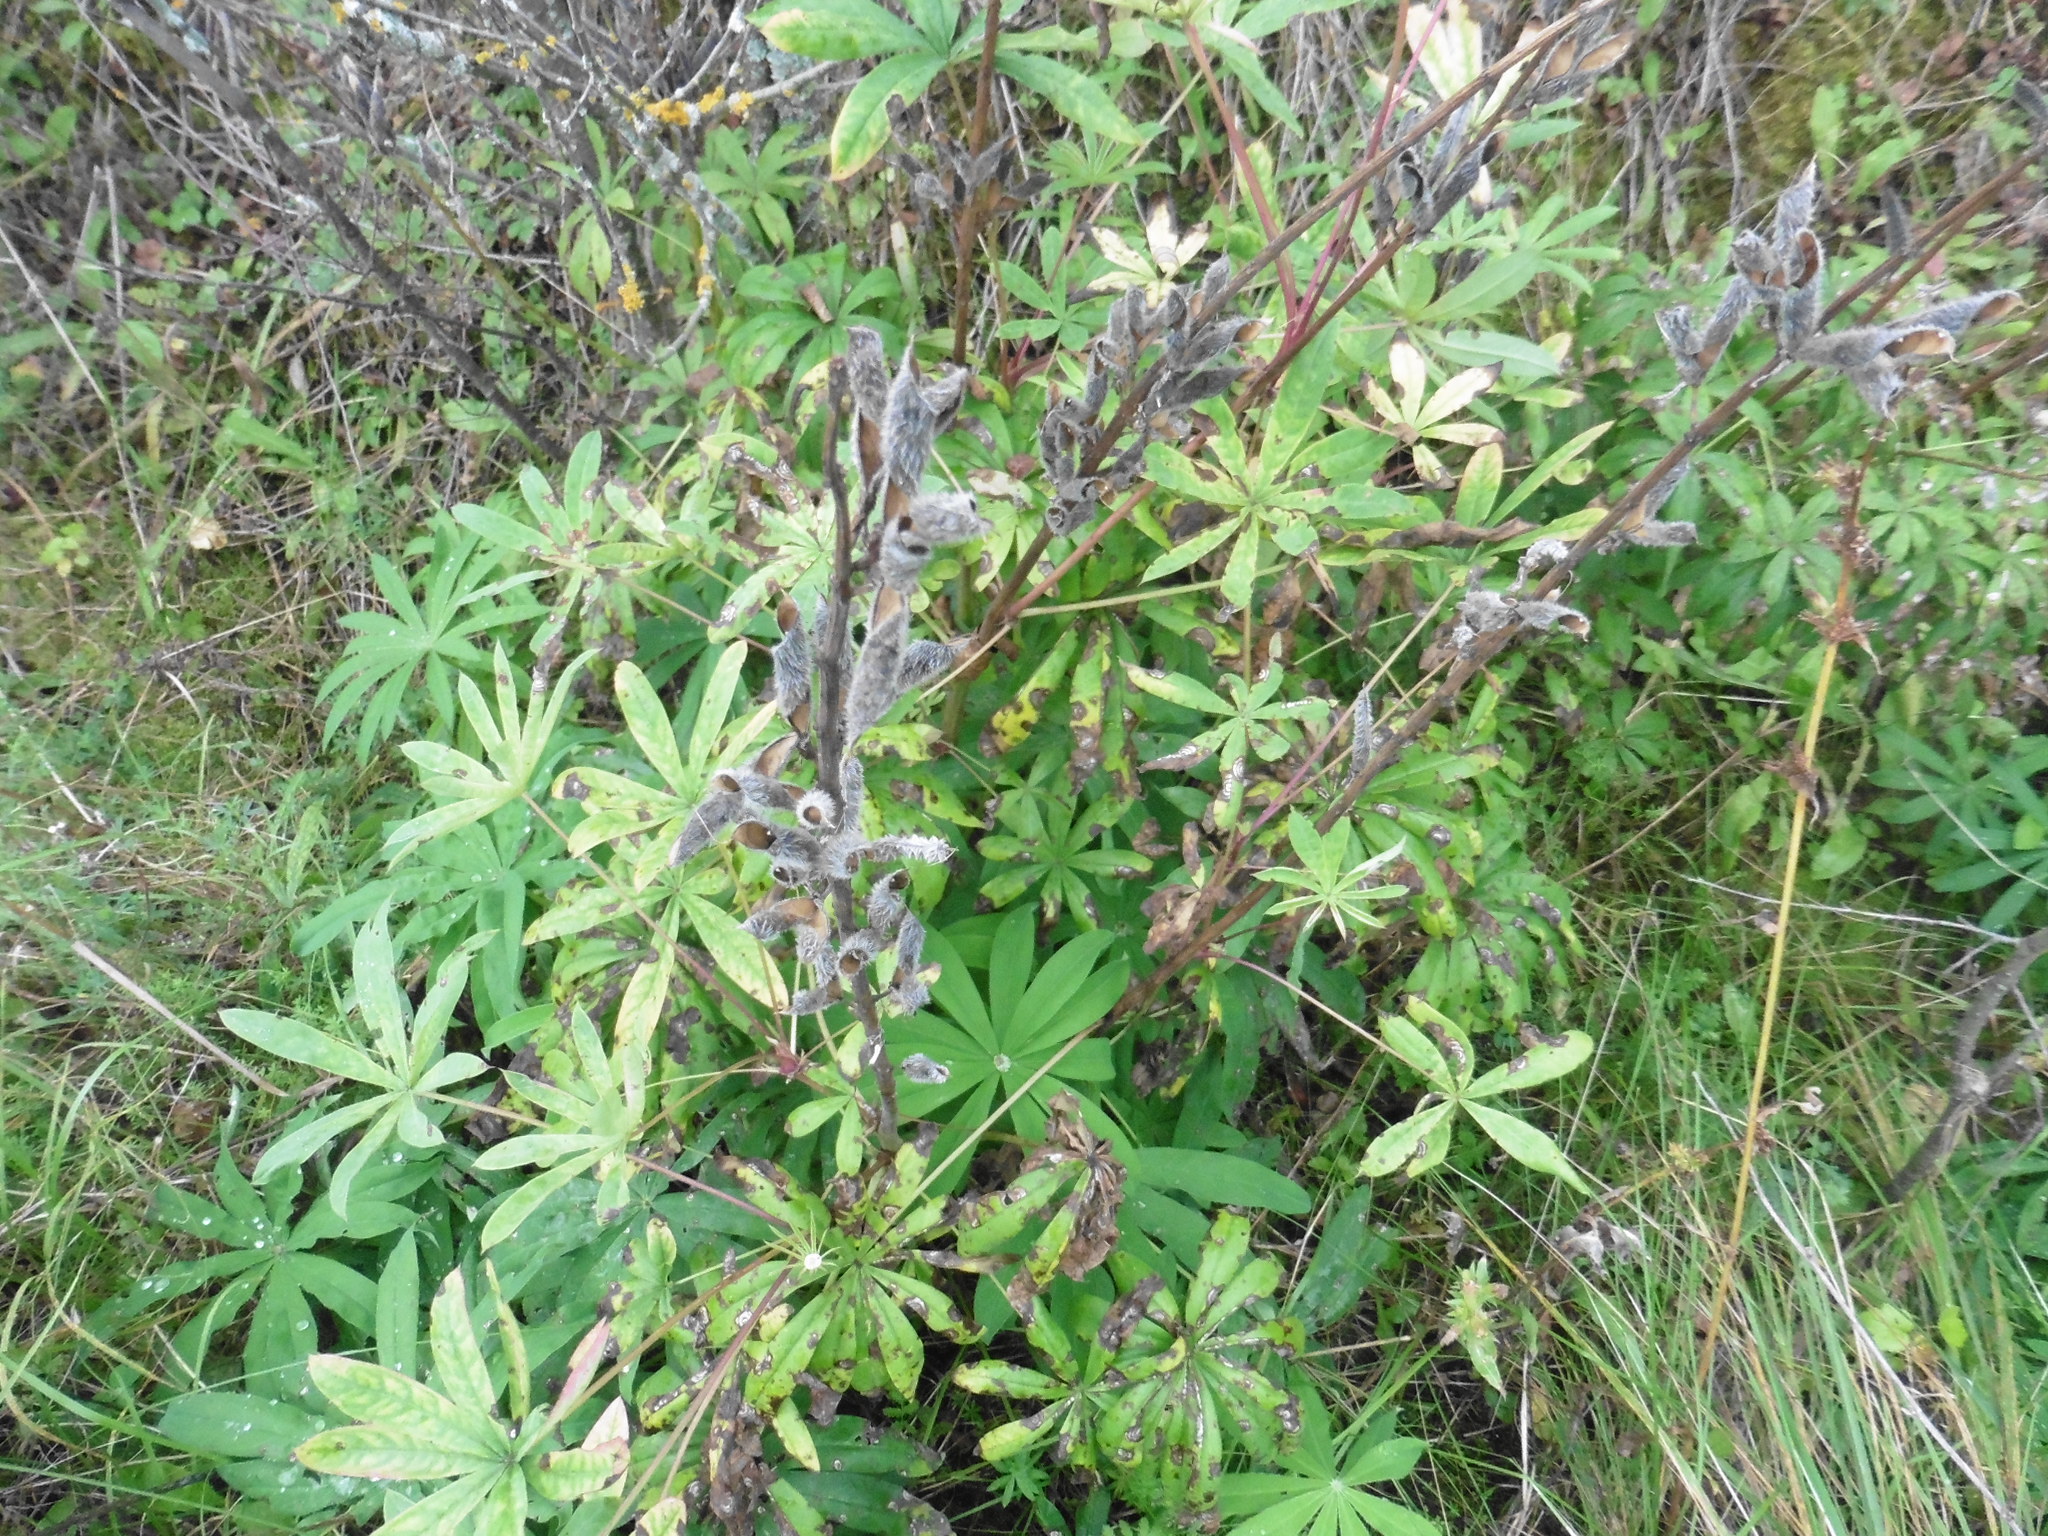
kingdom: Plantae
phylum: Tracheophyta
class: Magnoliopsida
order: Fabales
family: Fabaceae
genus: Lupinus
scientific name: Lupinus polyphyllus
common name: Garden lupin
